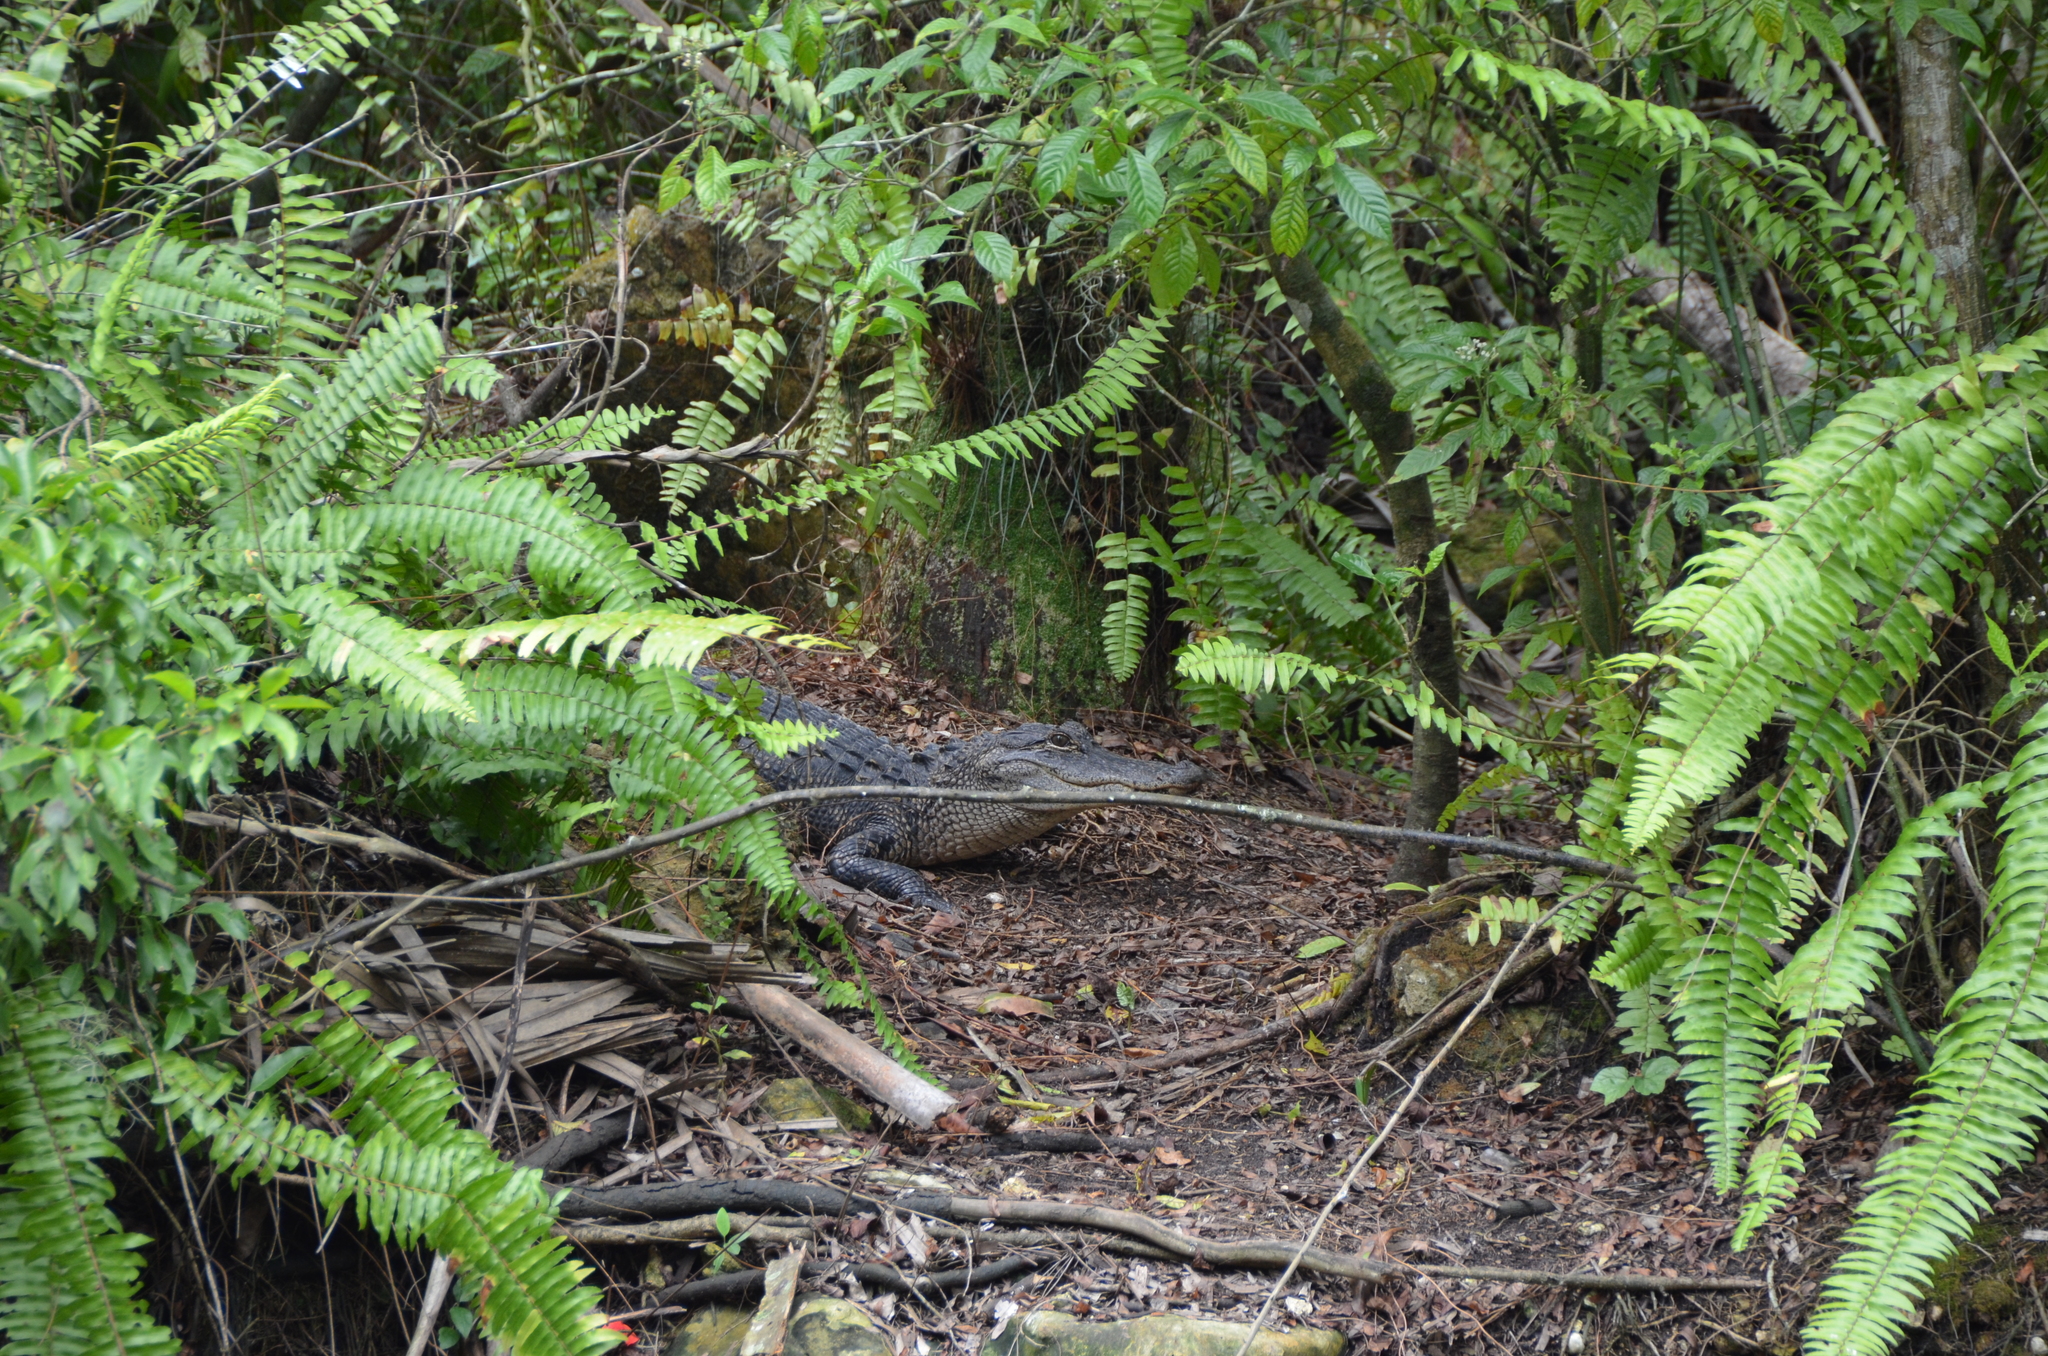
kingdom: Animalia
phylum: Chordata
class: Crocodylia
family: Alligatoridae
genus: Alligator
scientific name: Alligator mississippiensis
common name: American alligator
